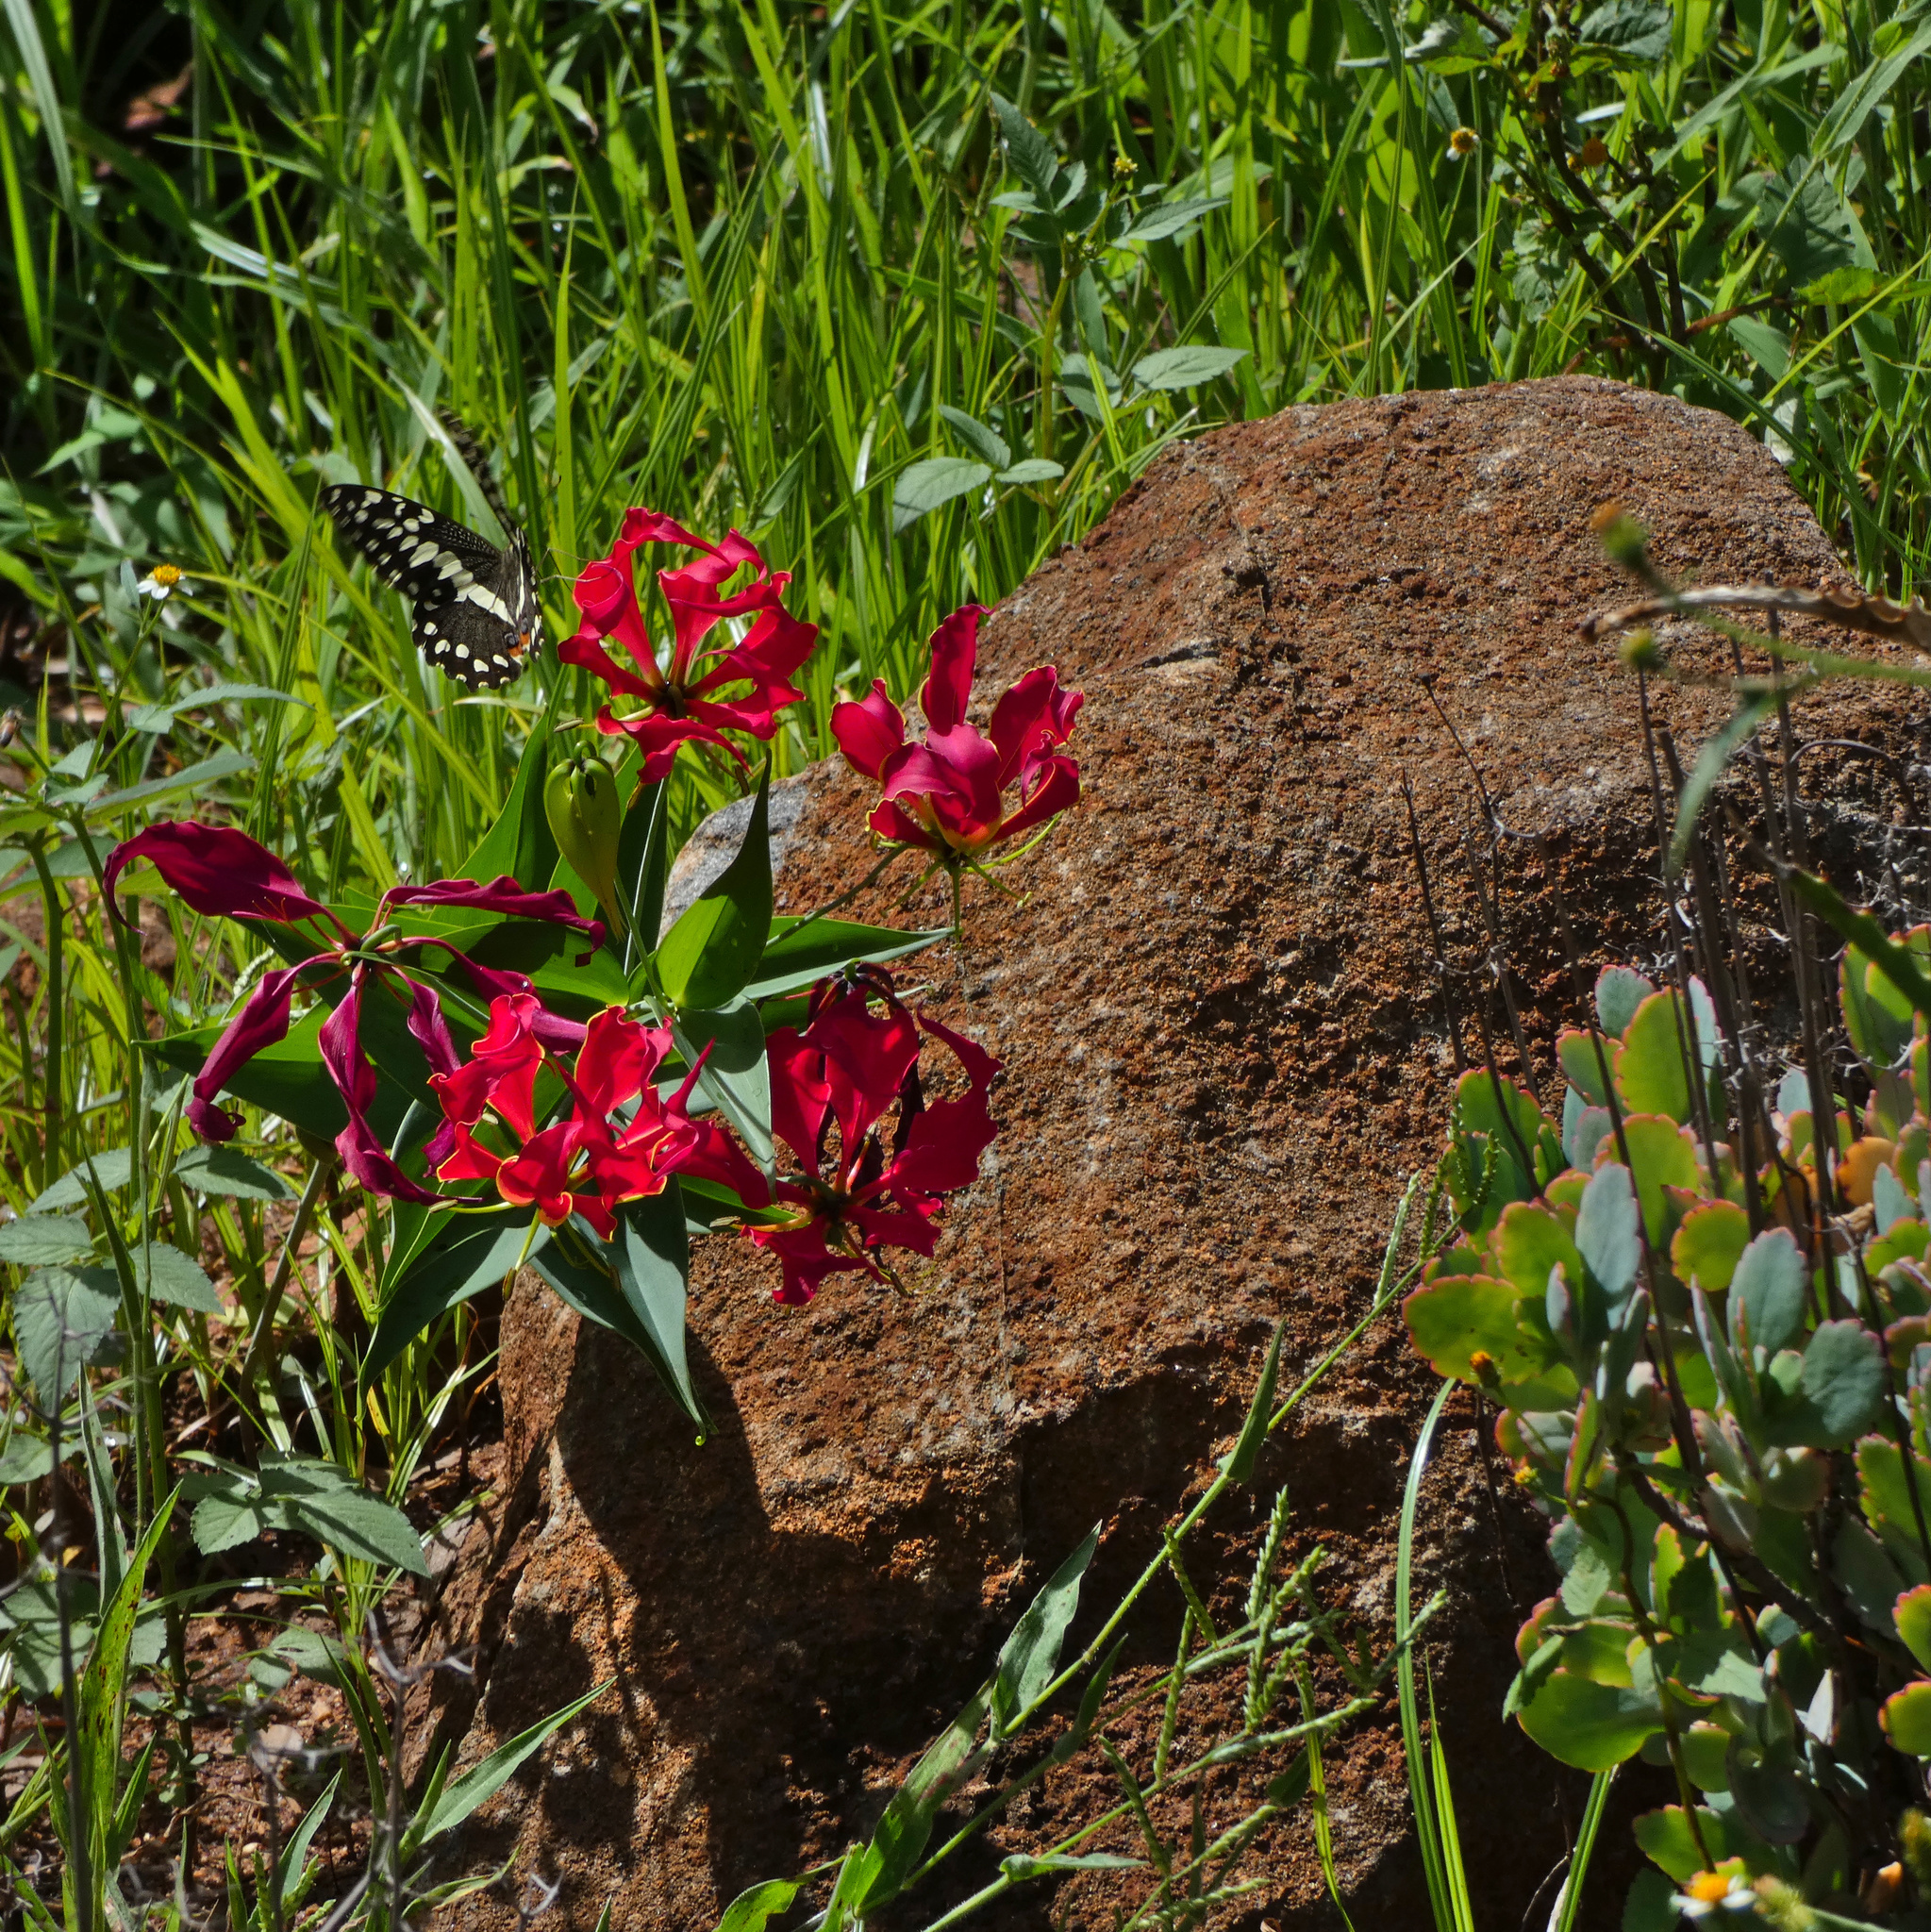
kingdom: Animalia
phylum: Arthropoda
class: Insecta
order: Lepidoptera
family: Papilionidae
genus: Papilio
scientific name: Papilio demodocus
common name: Christmas butterfly
